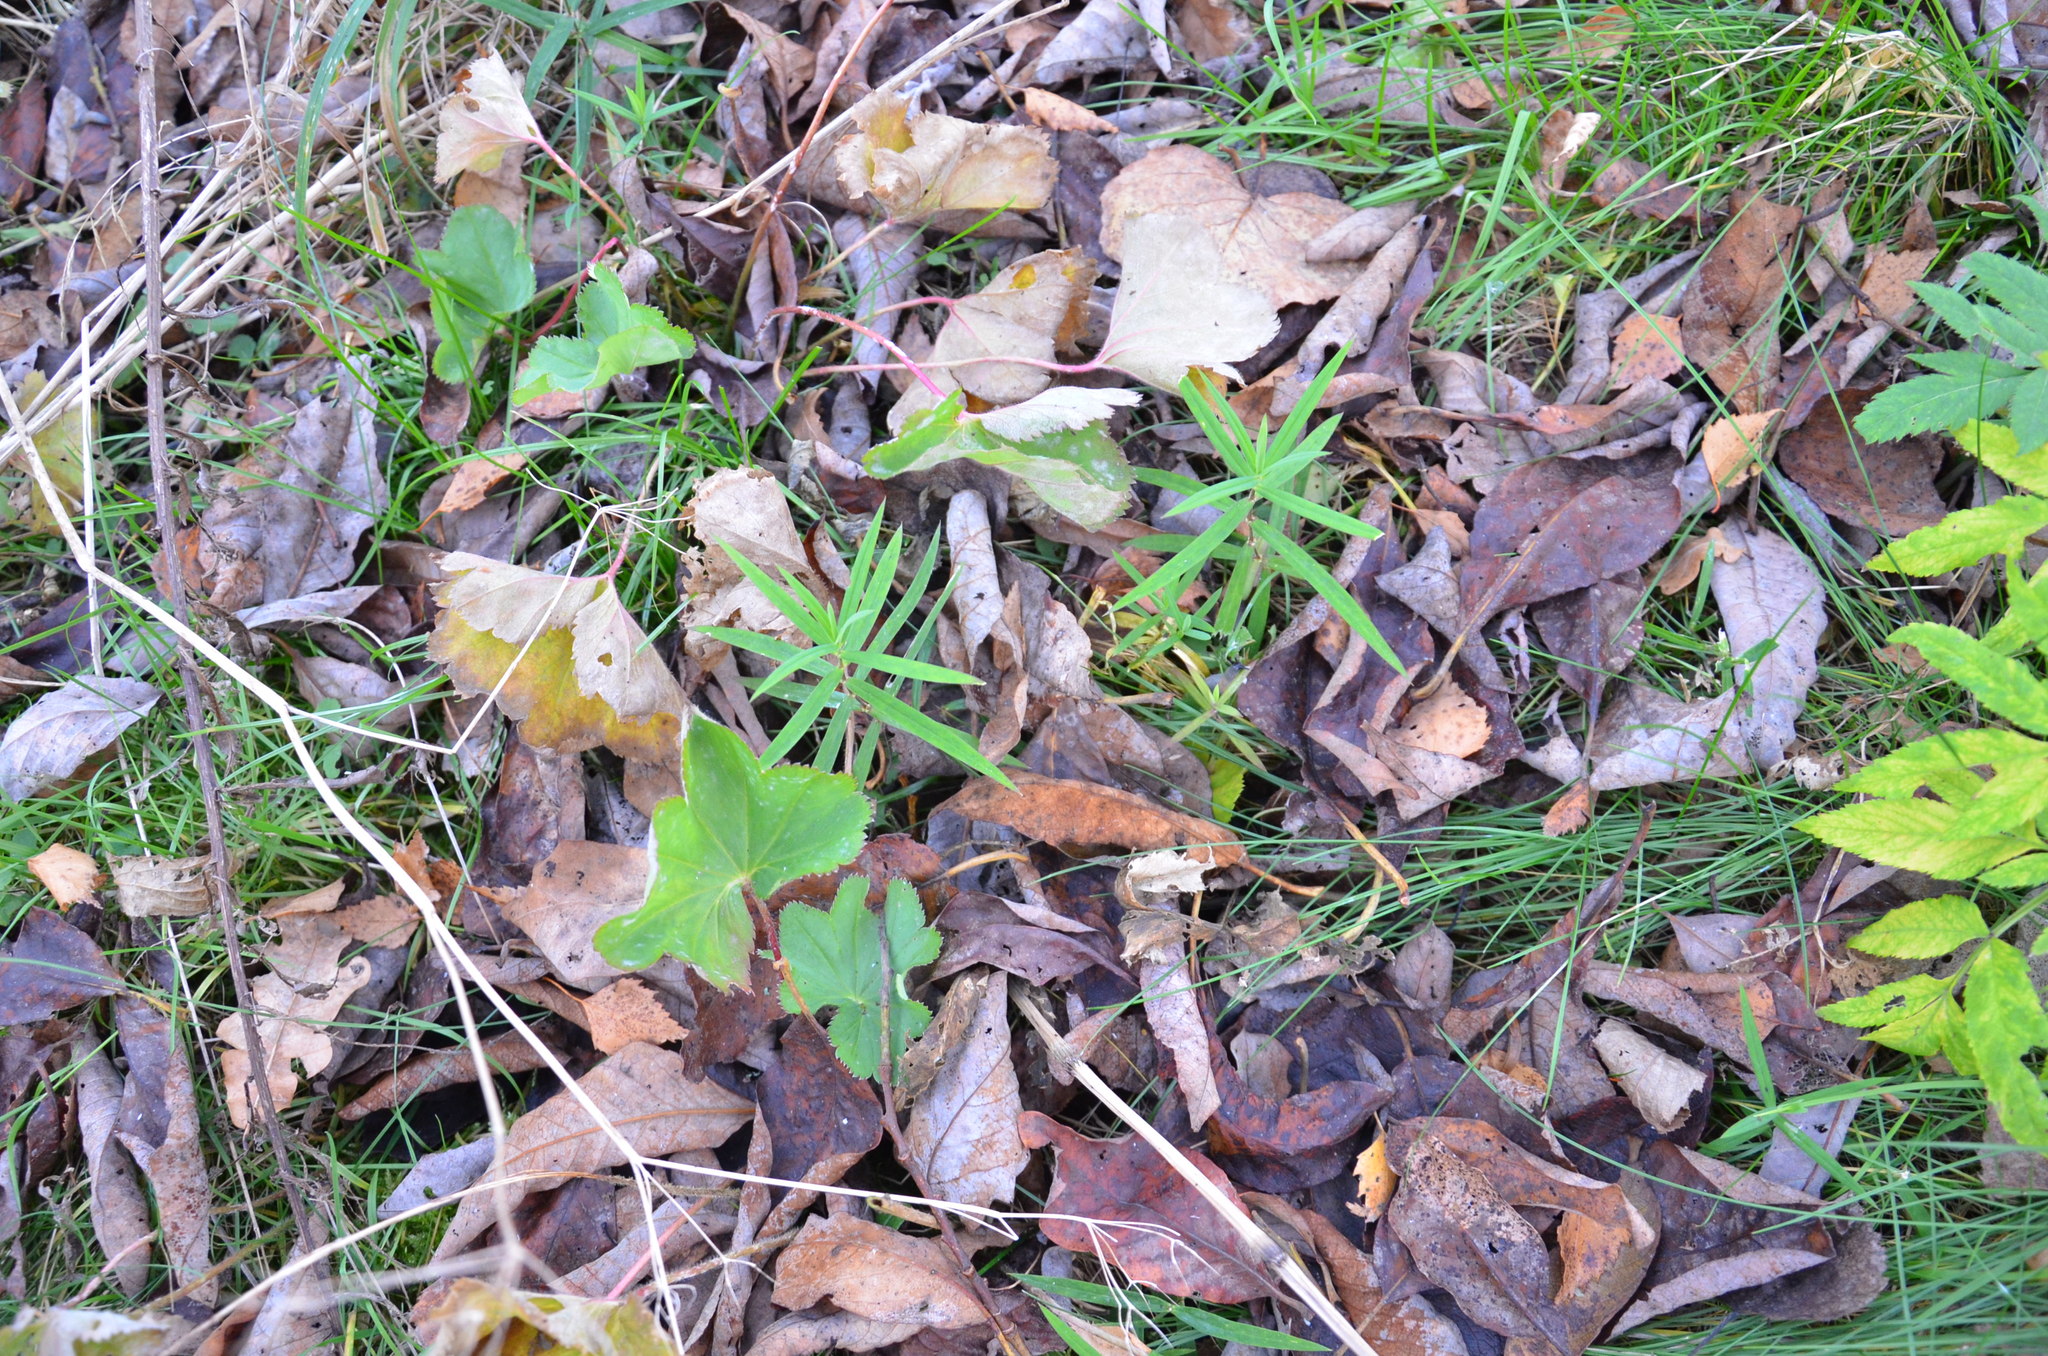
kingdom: Plantae
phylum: Tracheophyta
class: Magnoliopsida
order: Rosales
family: Rosaceae
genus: Alchemilla
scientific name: Alchemilla
